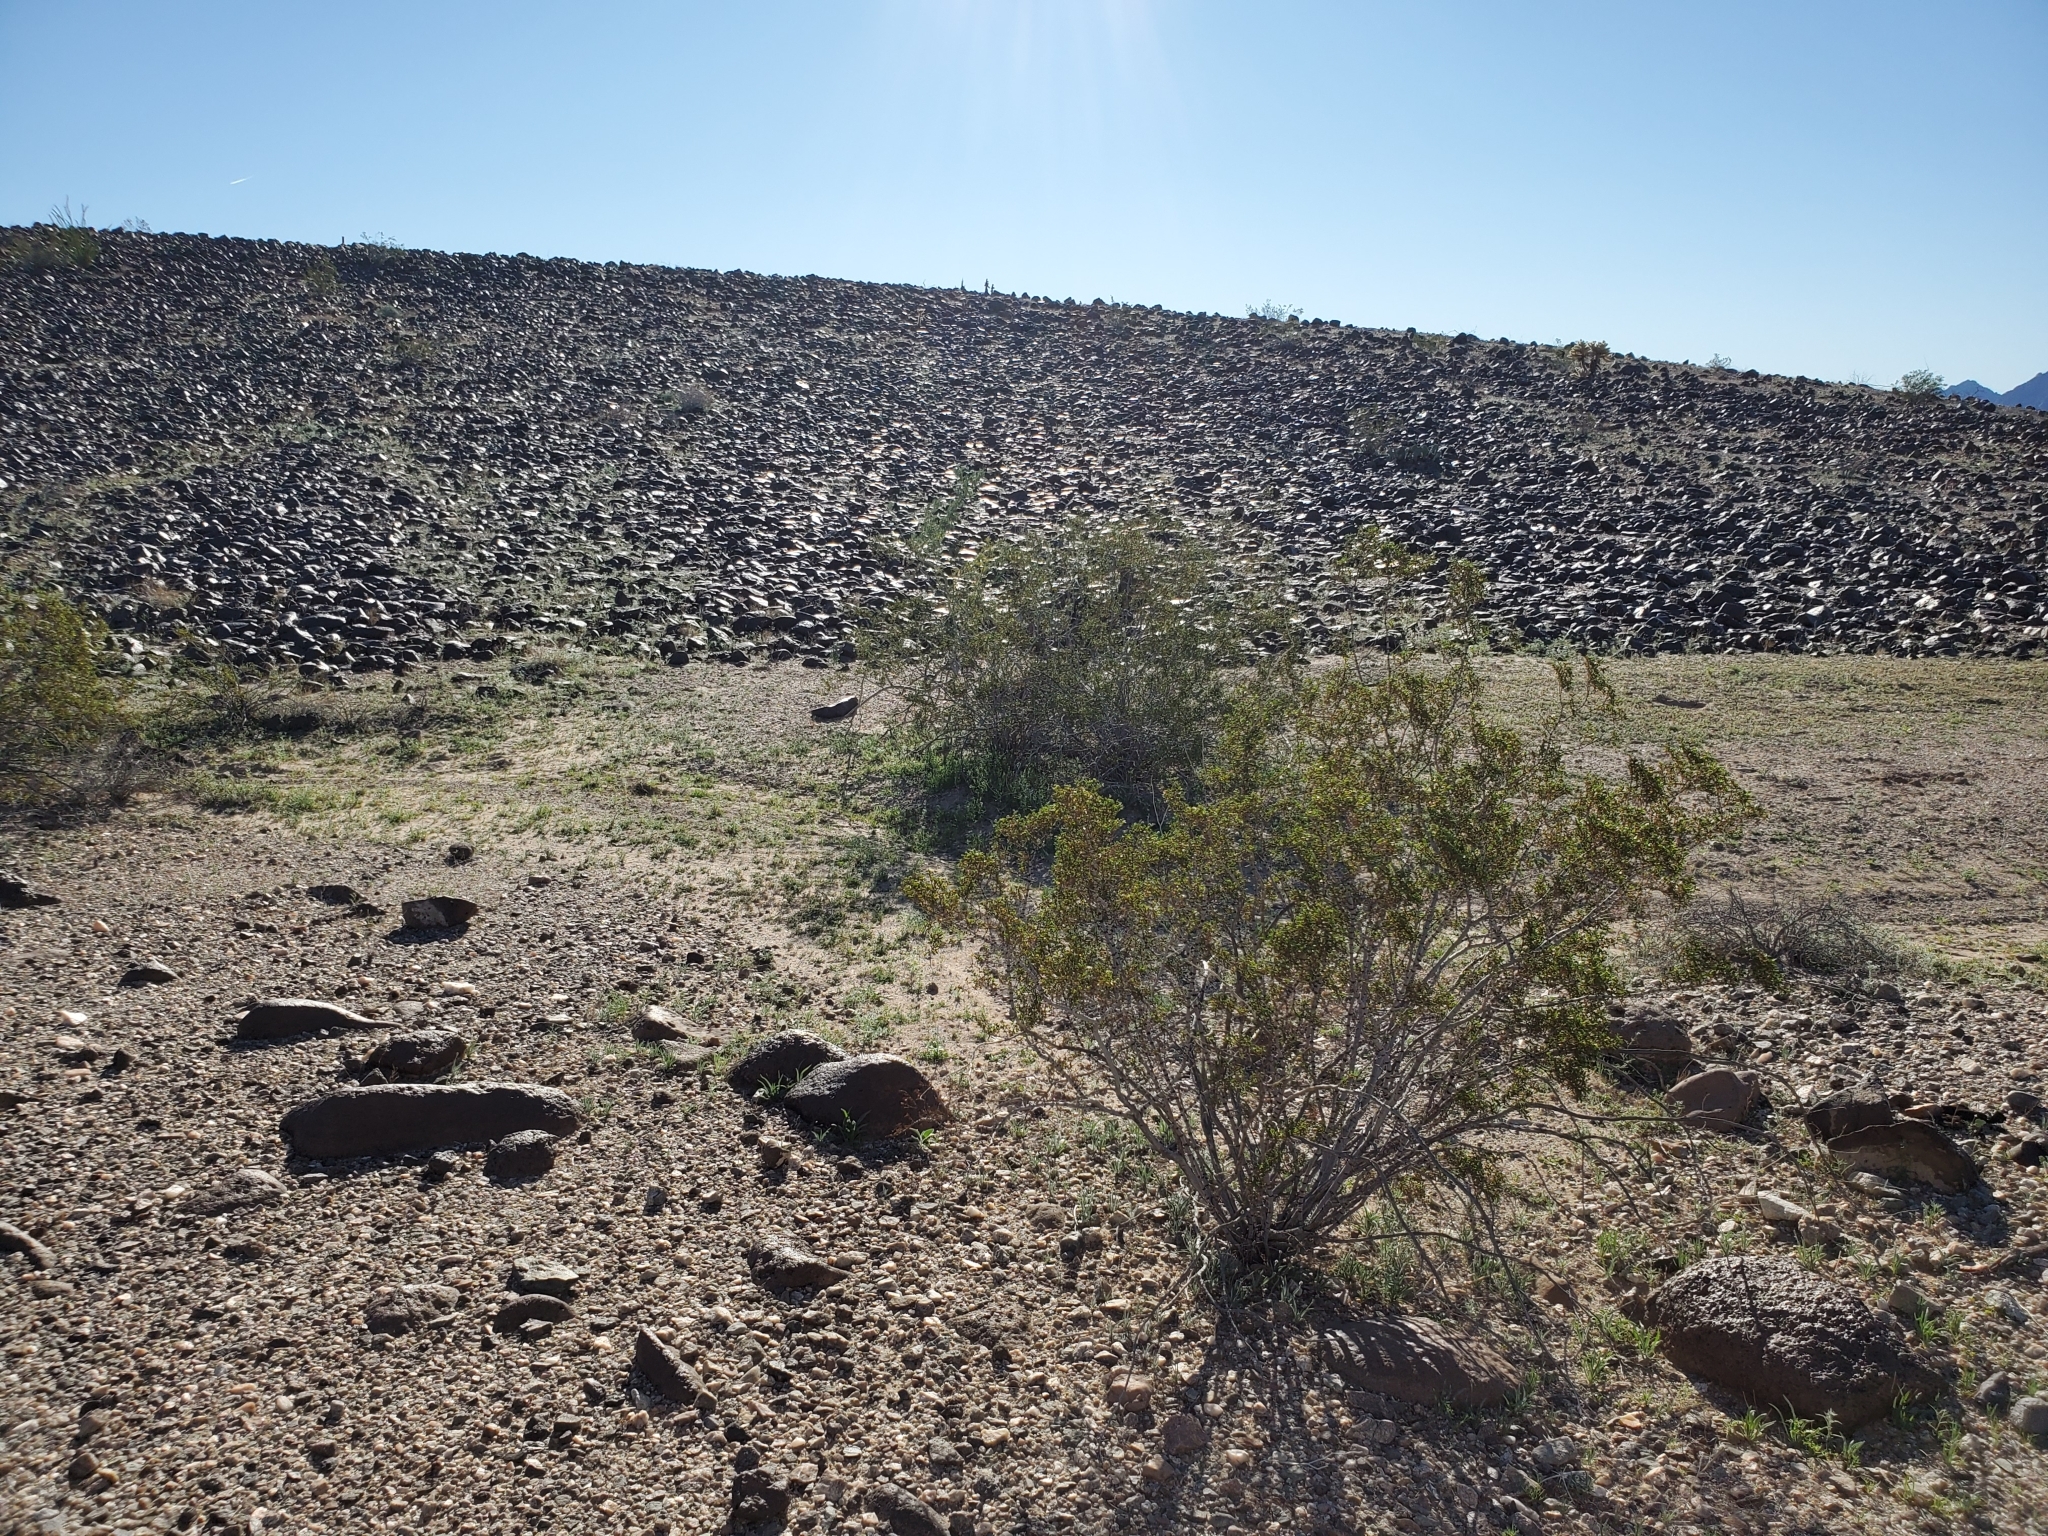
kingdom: Plantae
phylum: Tracheophyta
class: Magnoliopsida
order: Zygophyllales
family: Zygophyllaceae
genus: Larrea
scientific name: Larrea tridentata
